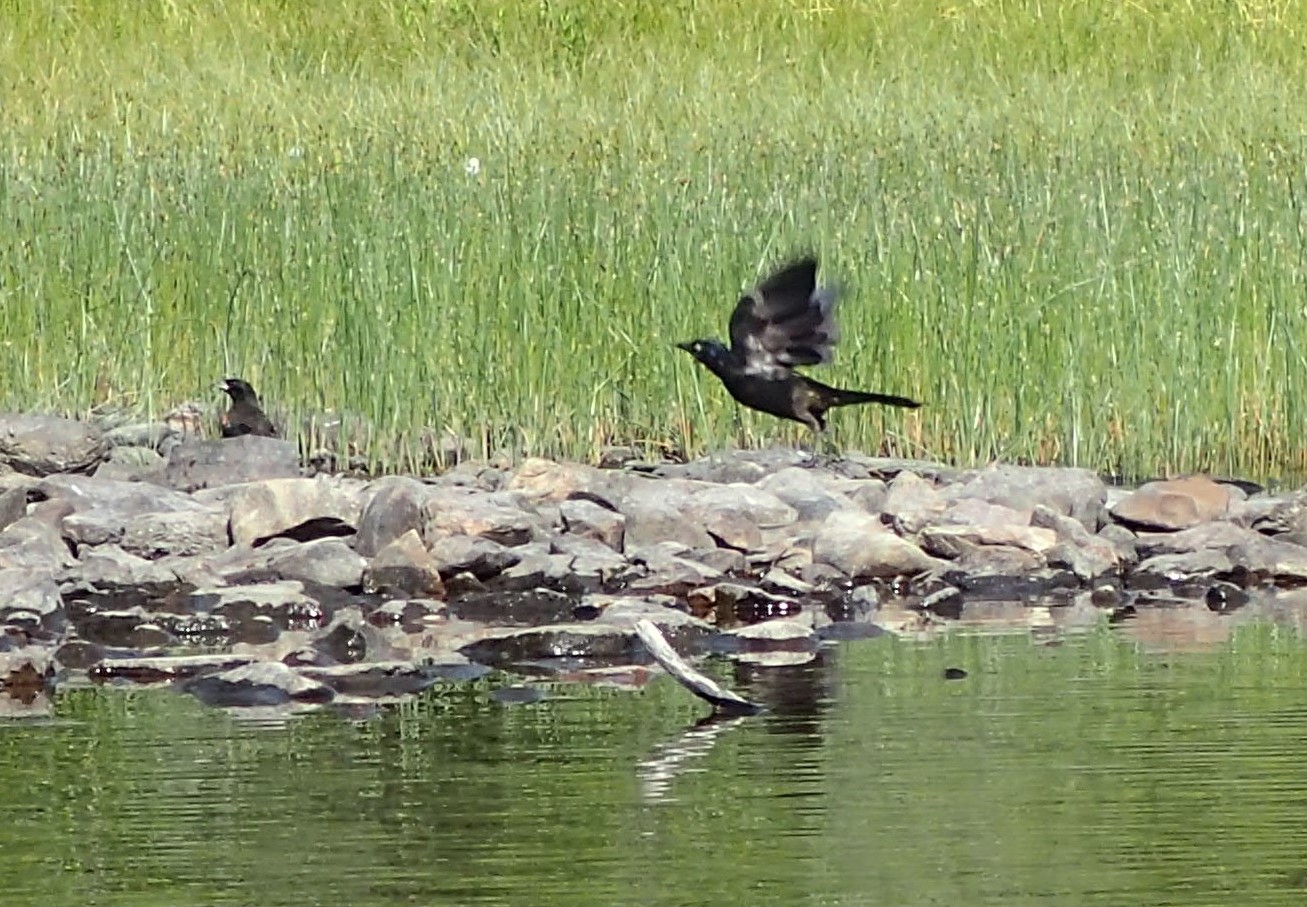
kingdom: Animalia
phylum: Chordata
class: Aves
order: Passeriformes
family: Icteridae
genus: Agelaius
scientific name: Agelaius phoeniceus
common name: Red-winged blackbird
